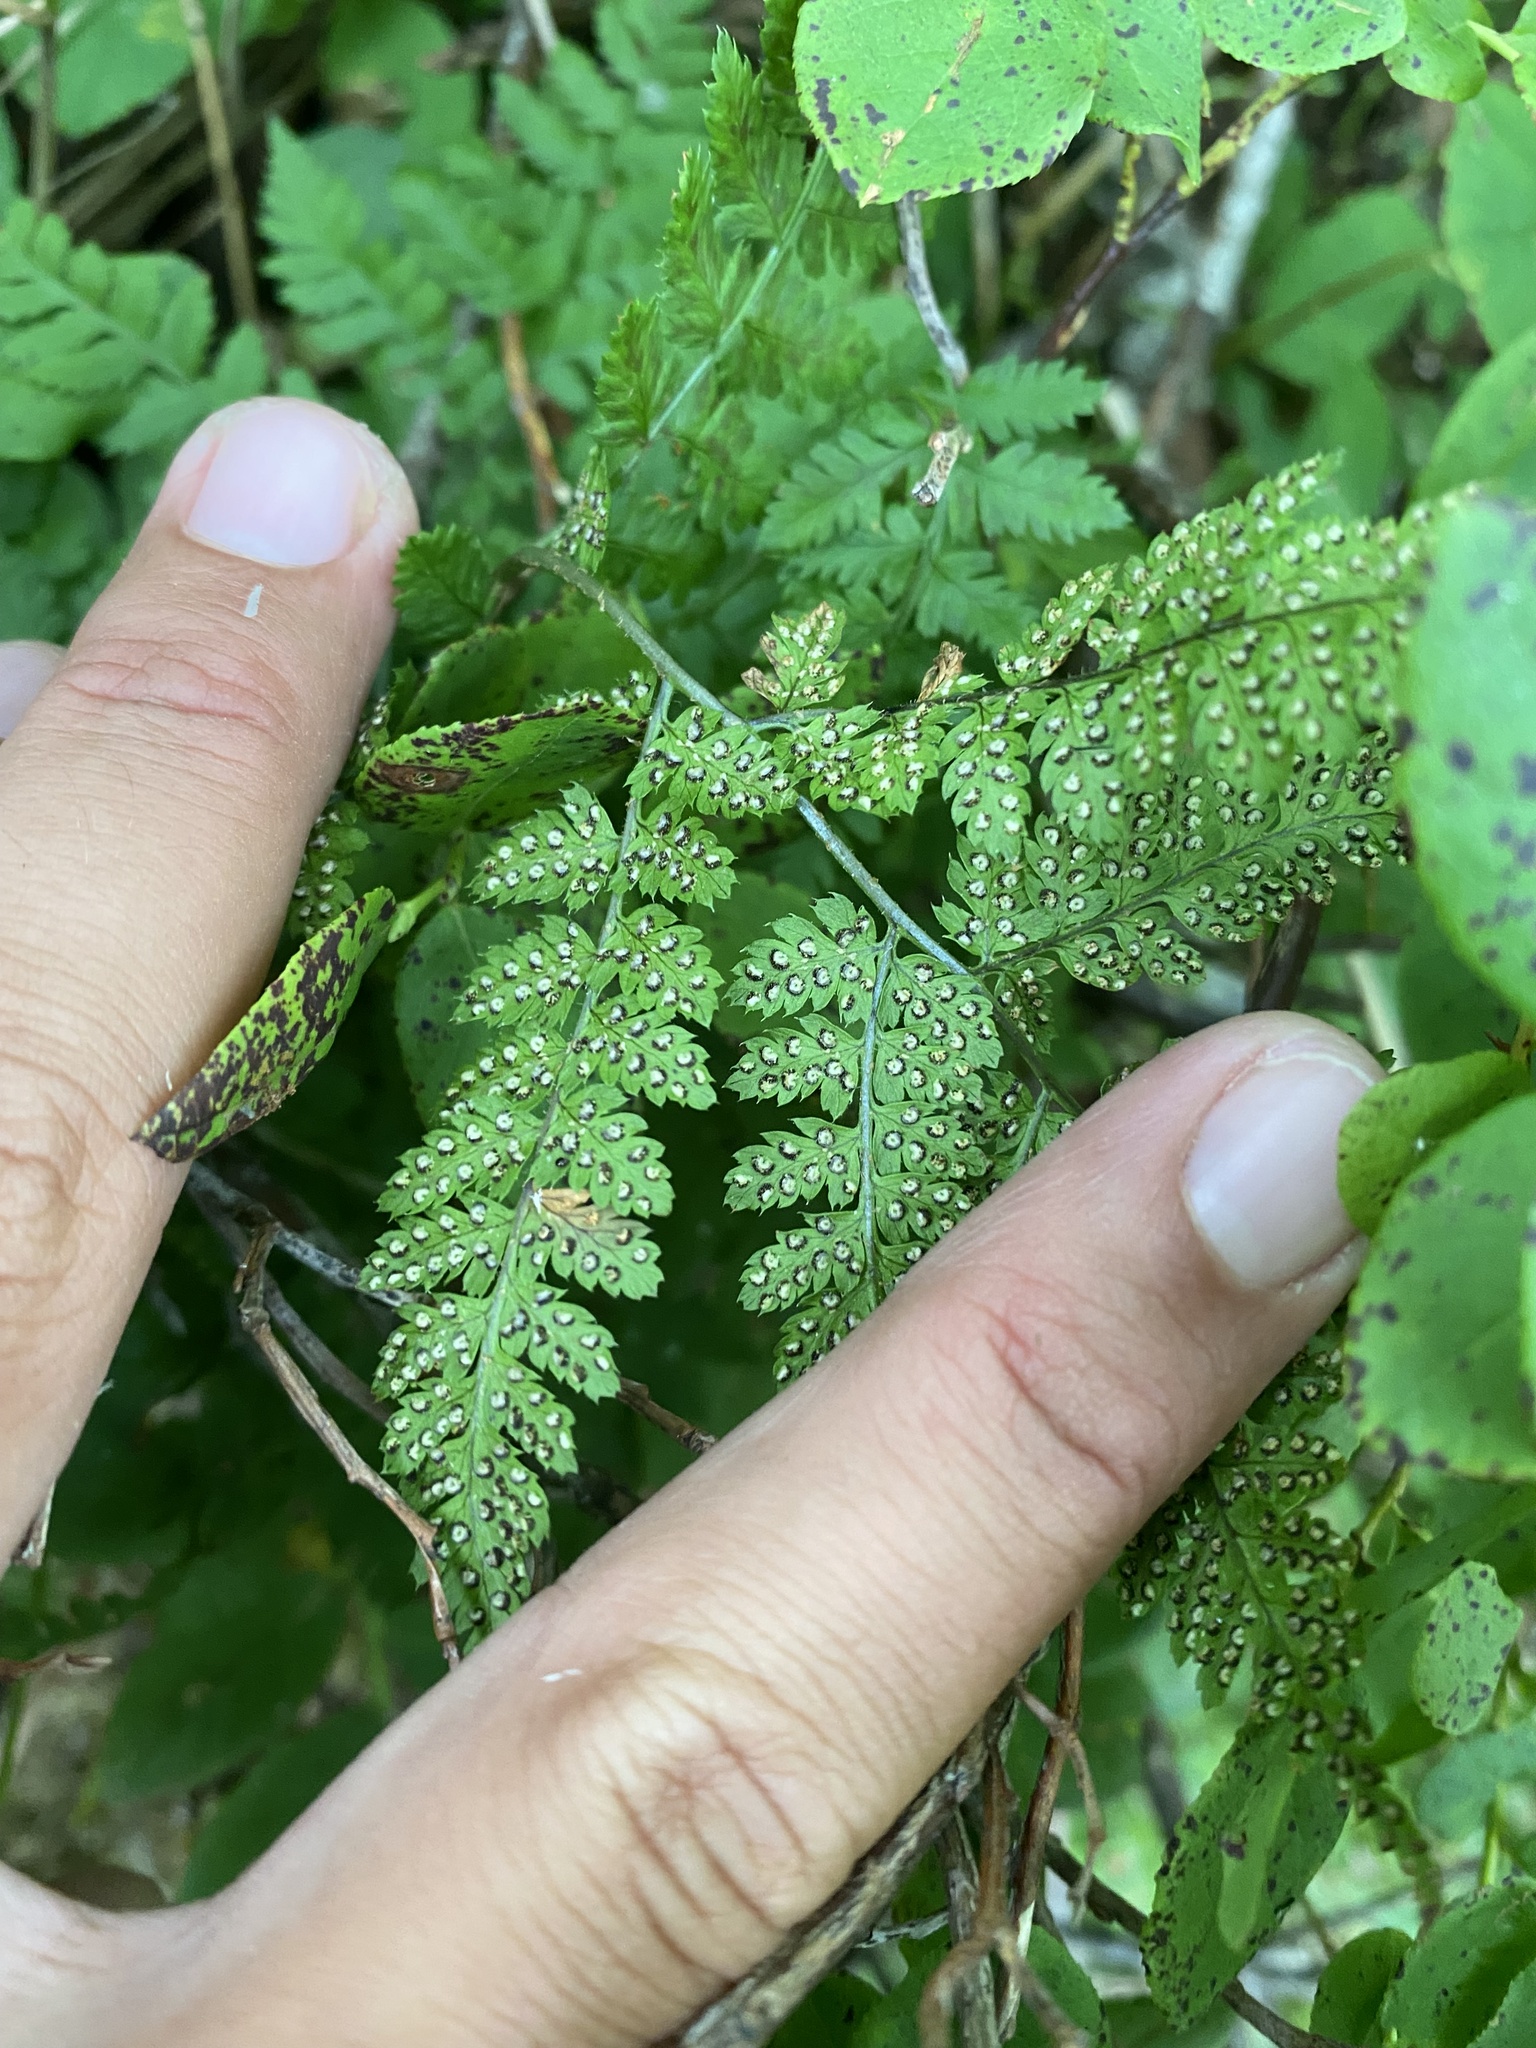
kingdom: Plantae
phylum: Tracheophyta
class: Polypodiopsida
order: Polypodiales
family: Dryopteridaceae
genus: Dryopteris
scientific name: Dryopteris amurensis
